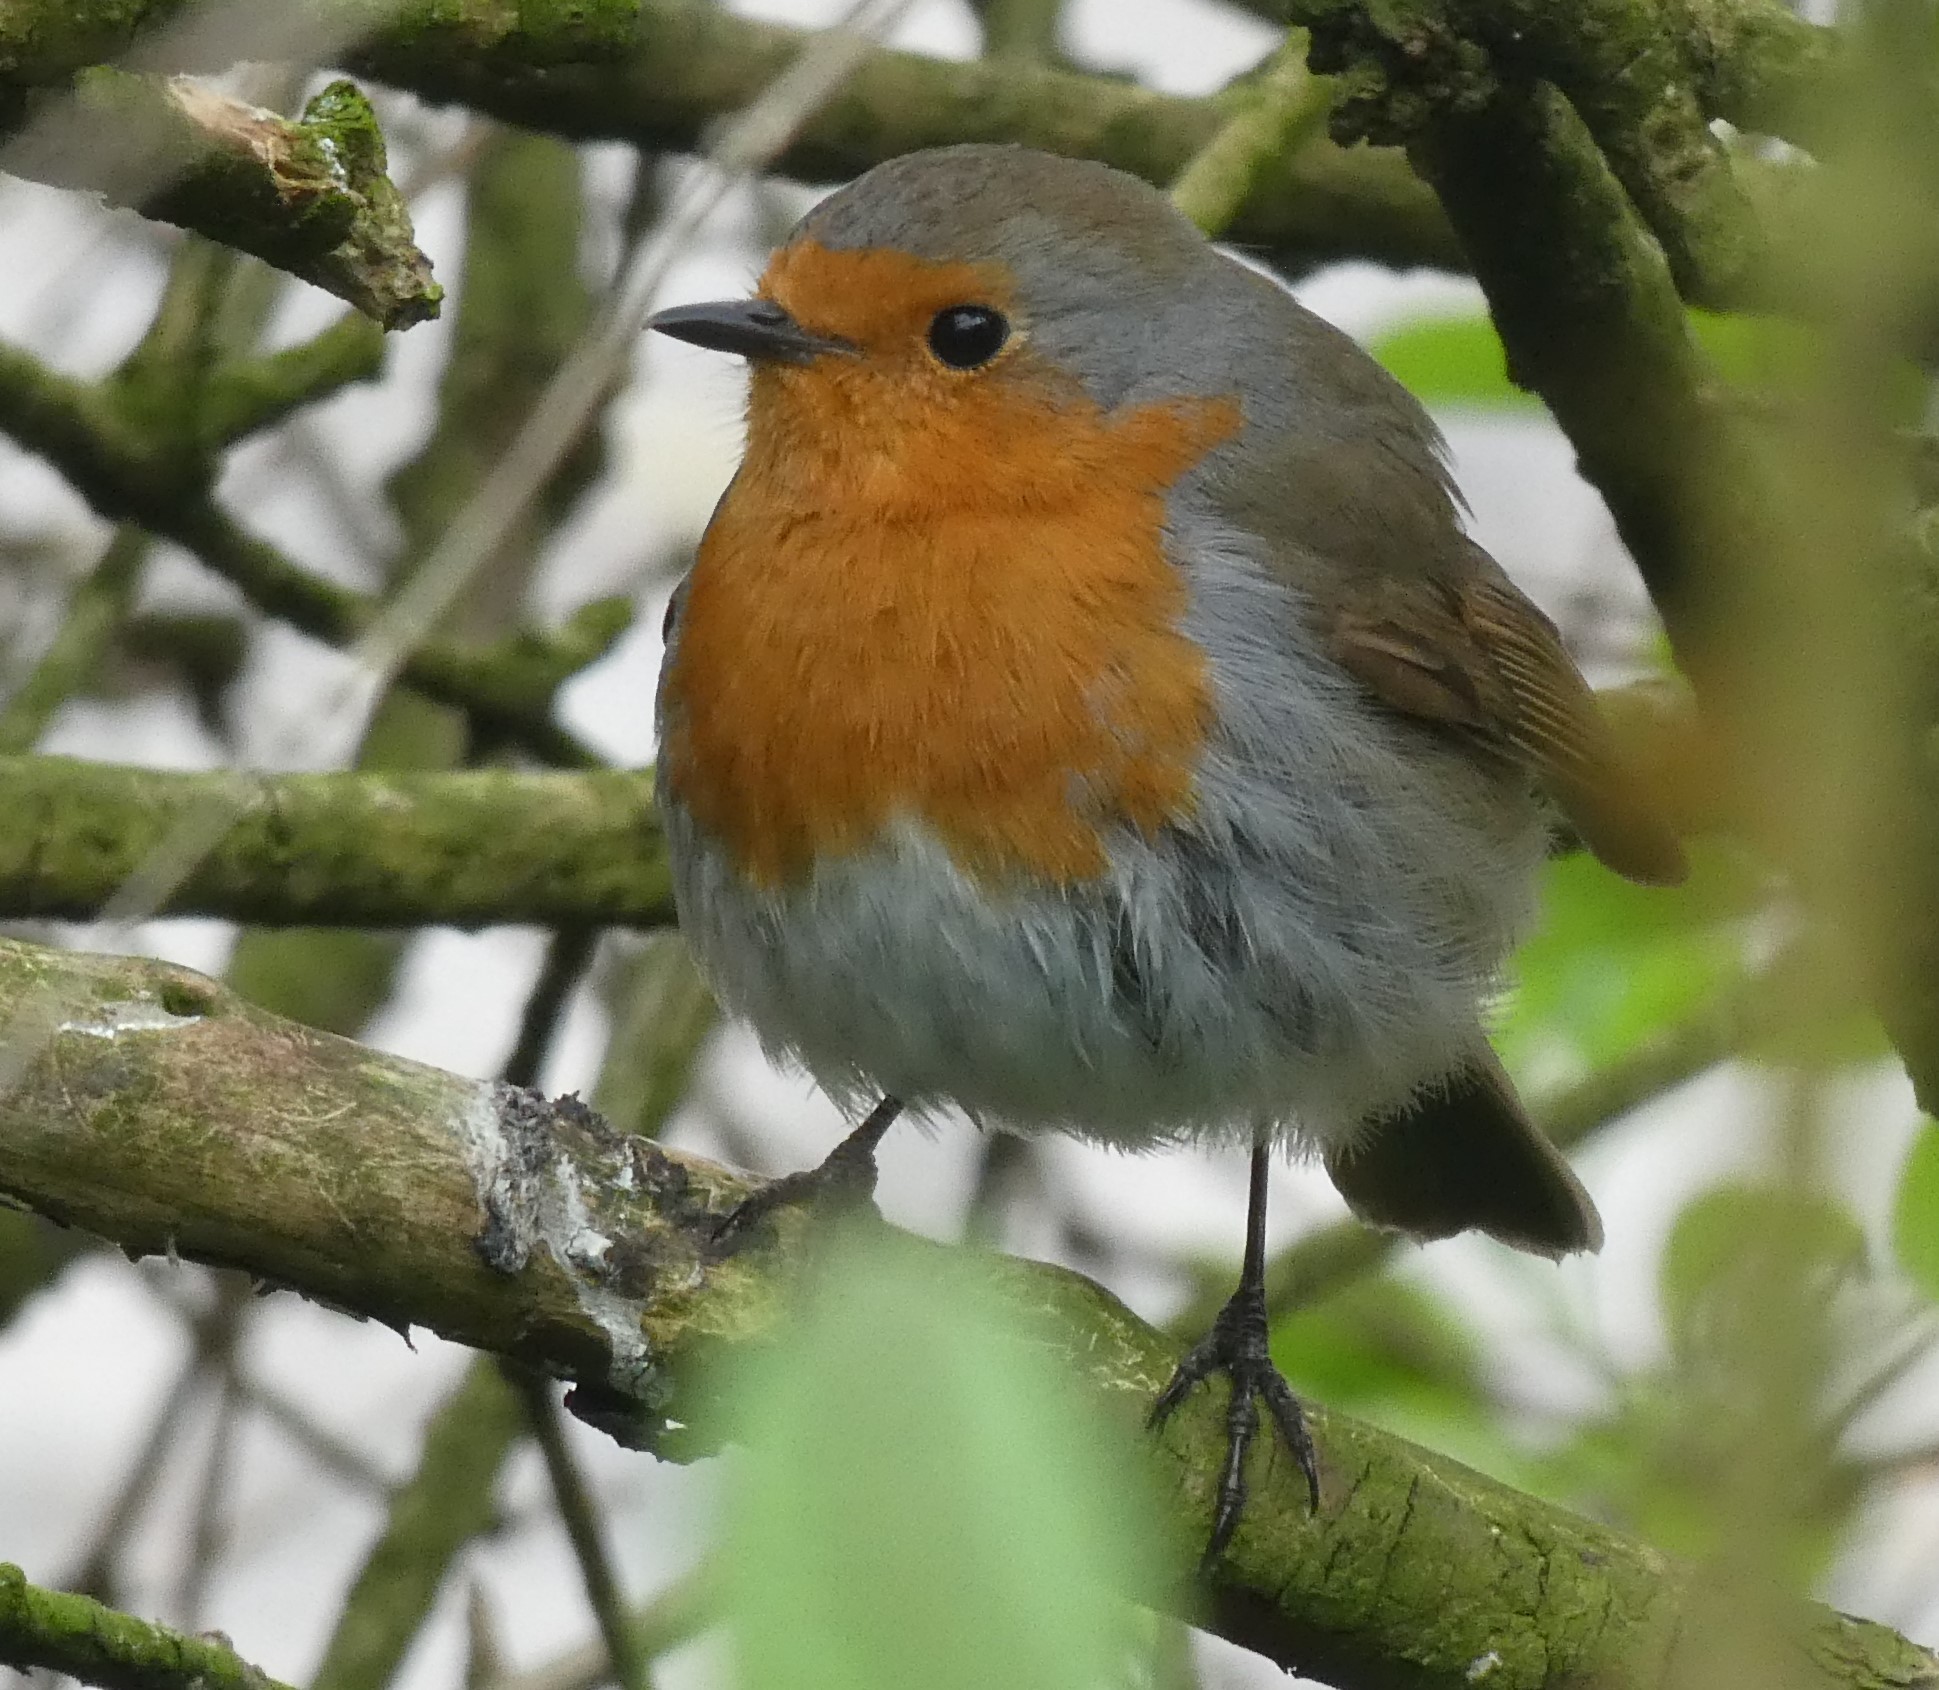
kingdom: Animalia
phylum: Chordata
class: Aves
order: Passeriformes
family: Muscicapidae
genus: Erithacus
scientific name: Erithacus rubecula
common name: European robin
